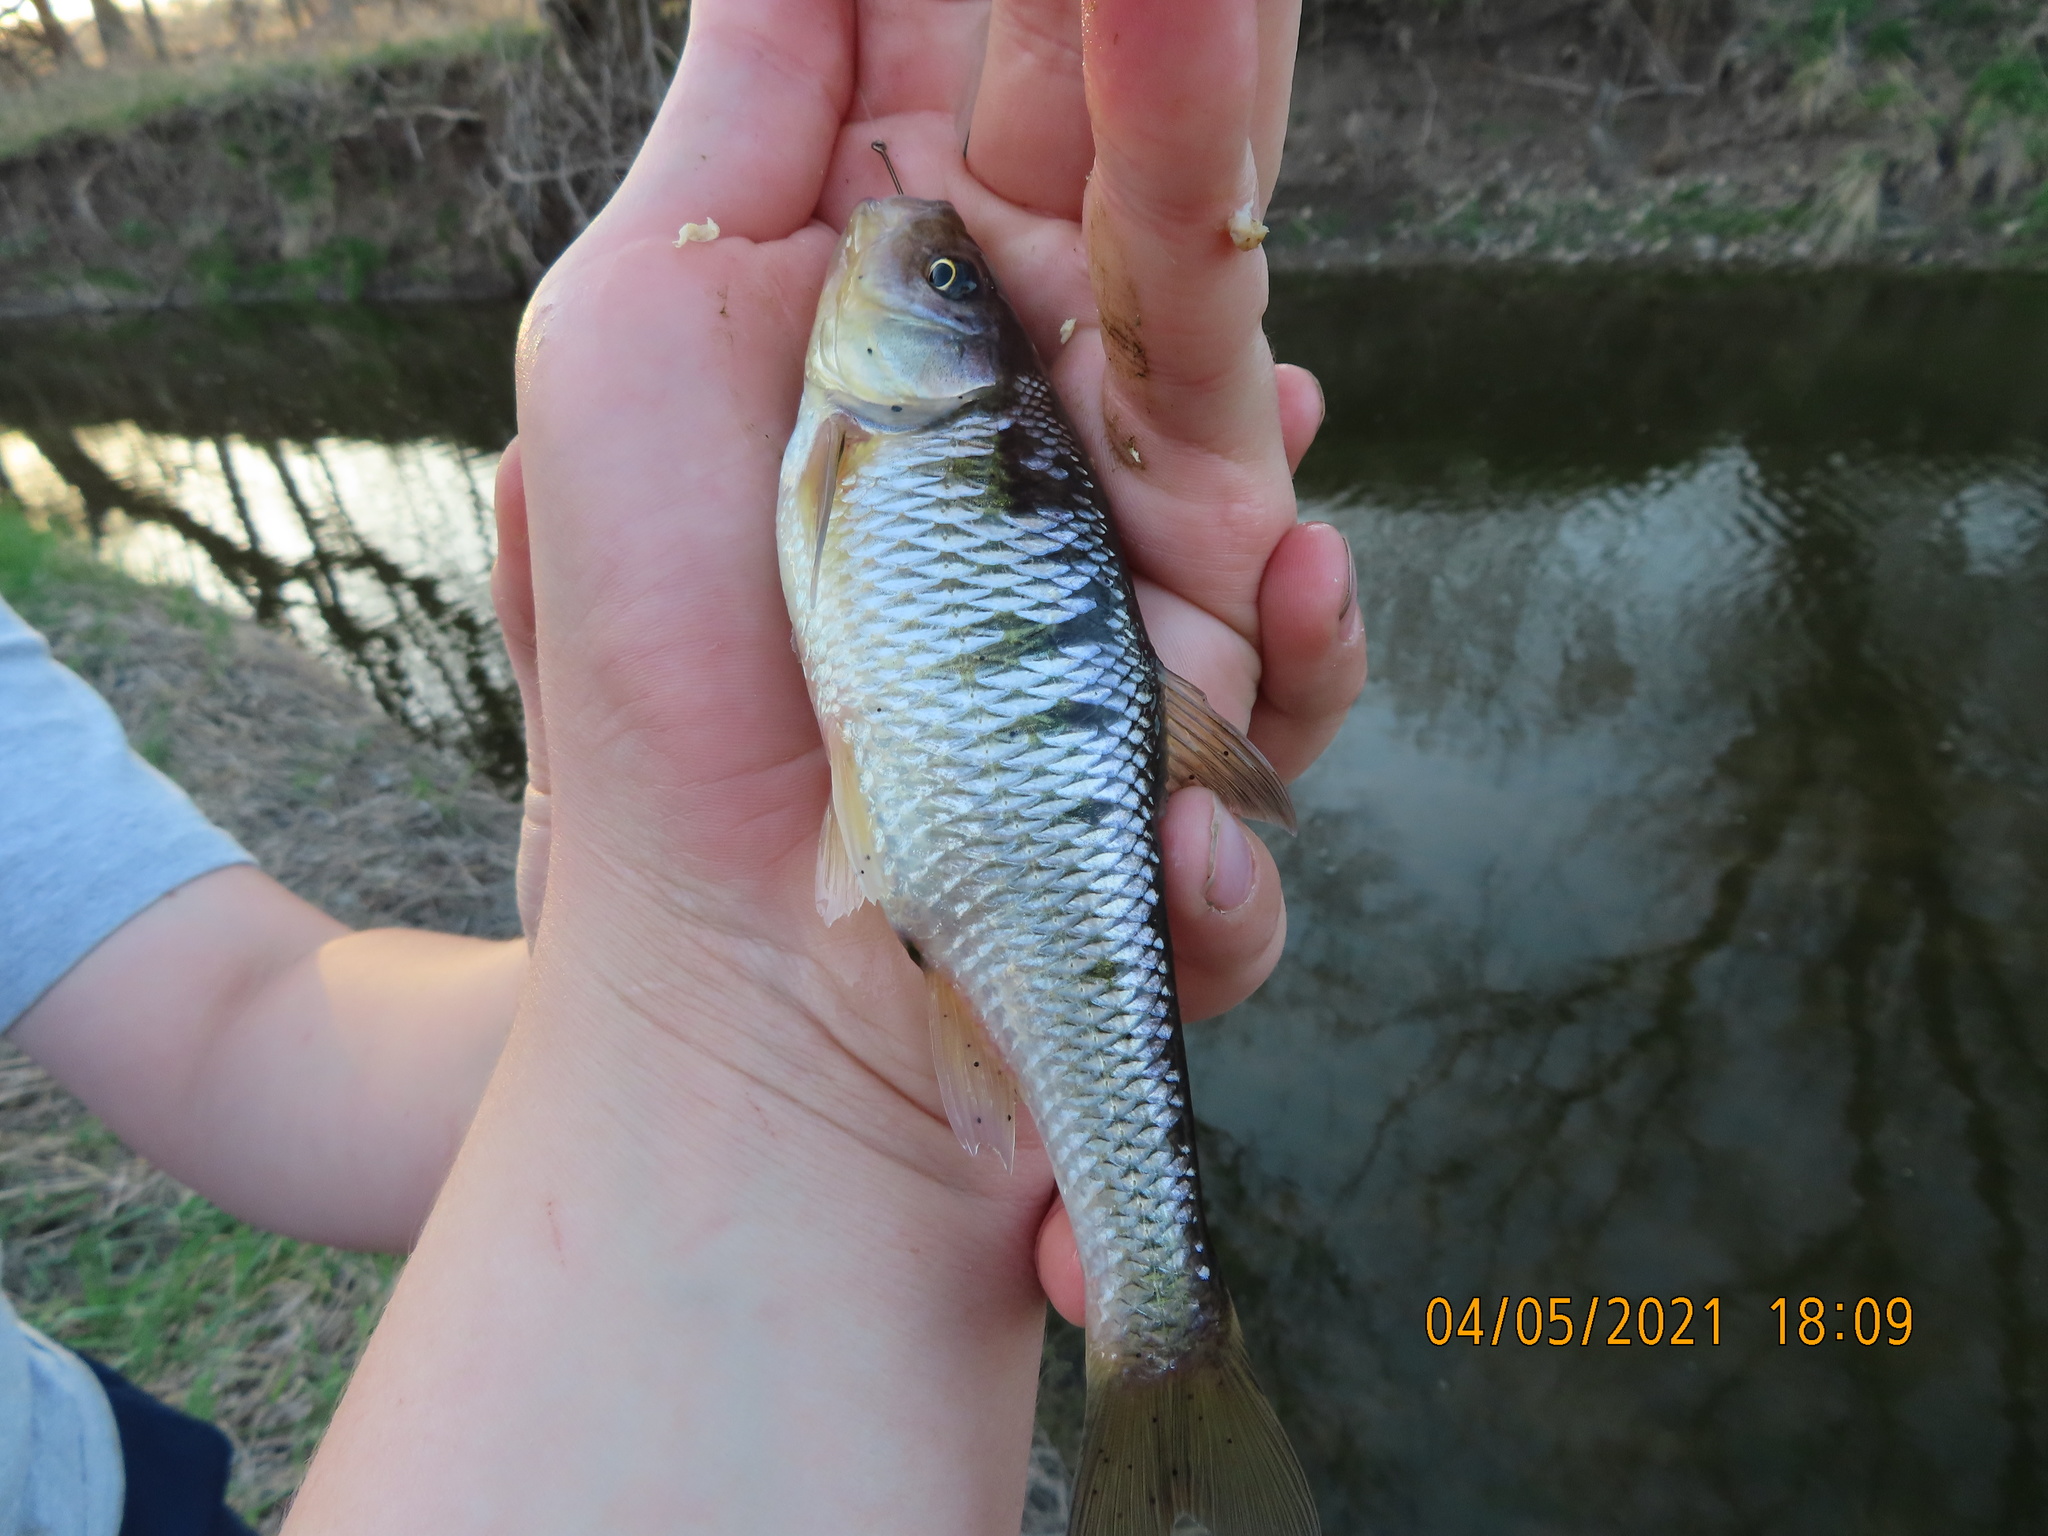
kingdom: Animalia
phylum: Chordata
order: Cypriniformes
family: Cyprinidae
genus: Luxilus
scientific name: Luxilus cornutus
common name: Common shiner
